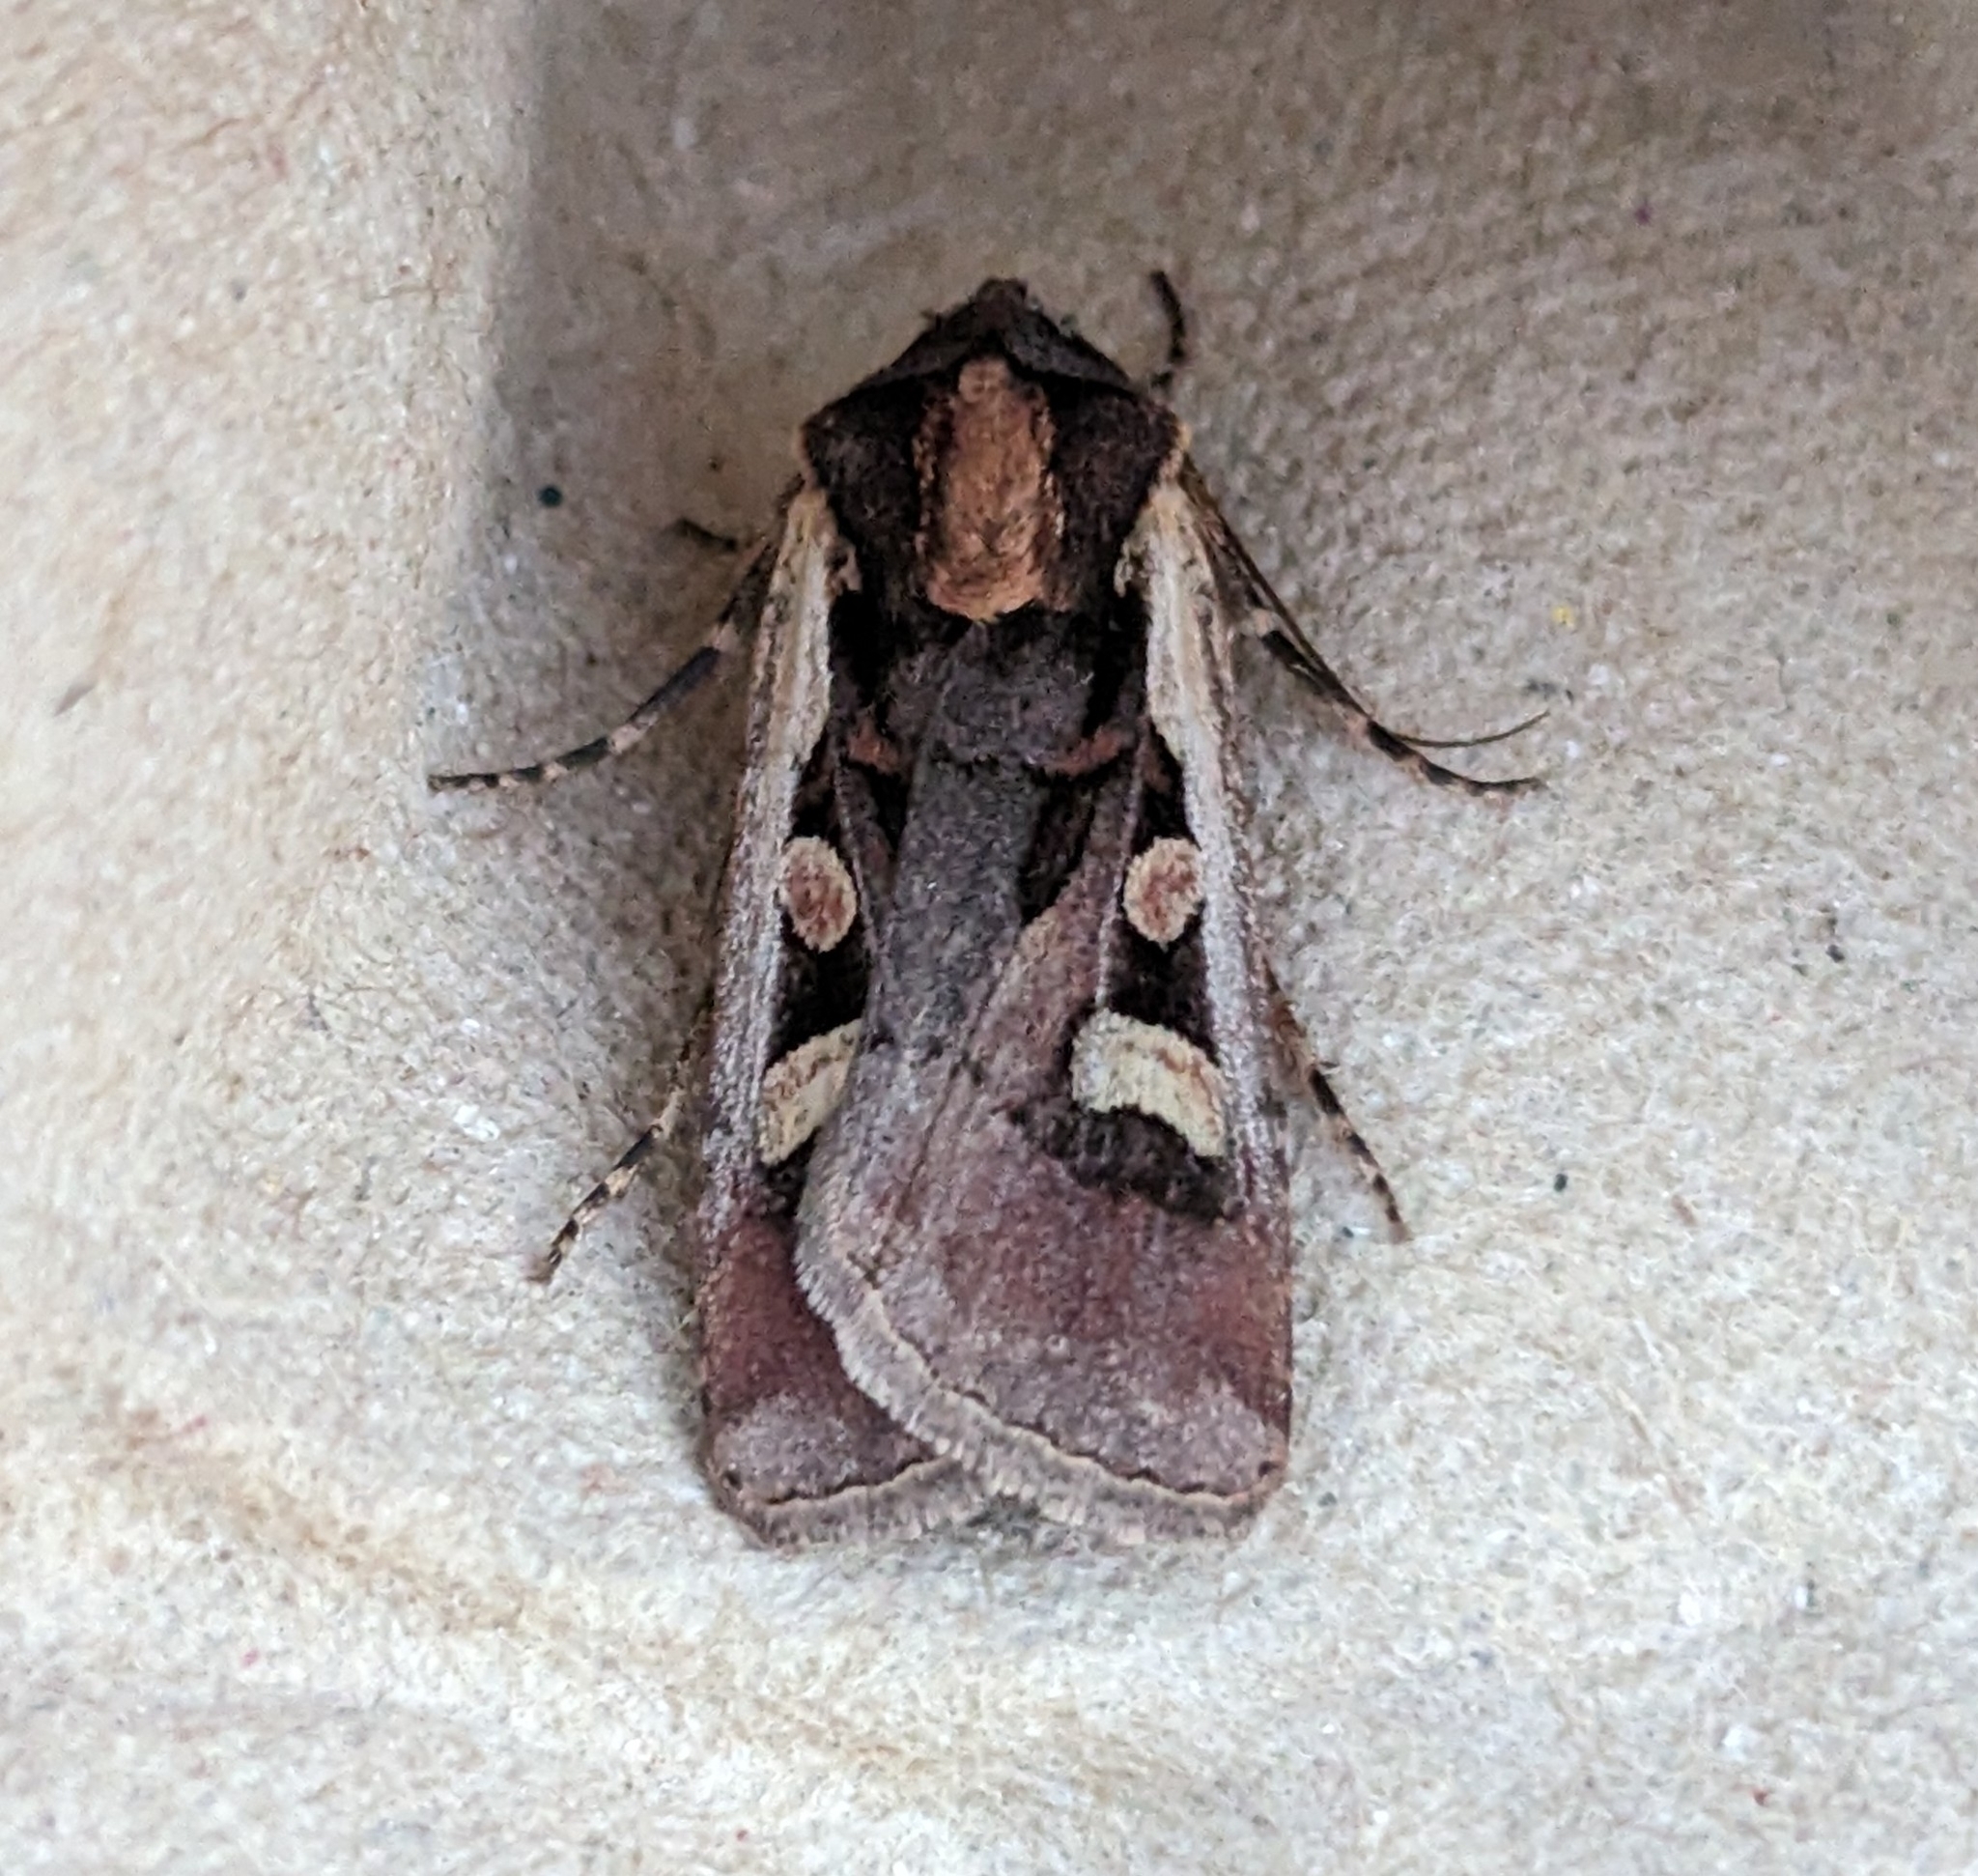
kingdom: Animalia
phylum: Arthropoda
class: Insecta
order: Lepidoptera
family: Noctuidae
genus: Euxoa
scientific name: Euxoa obeliscoides
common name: Obelisk dart moth
